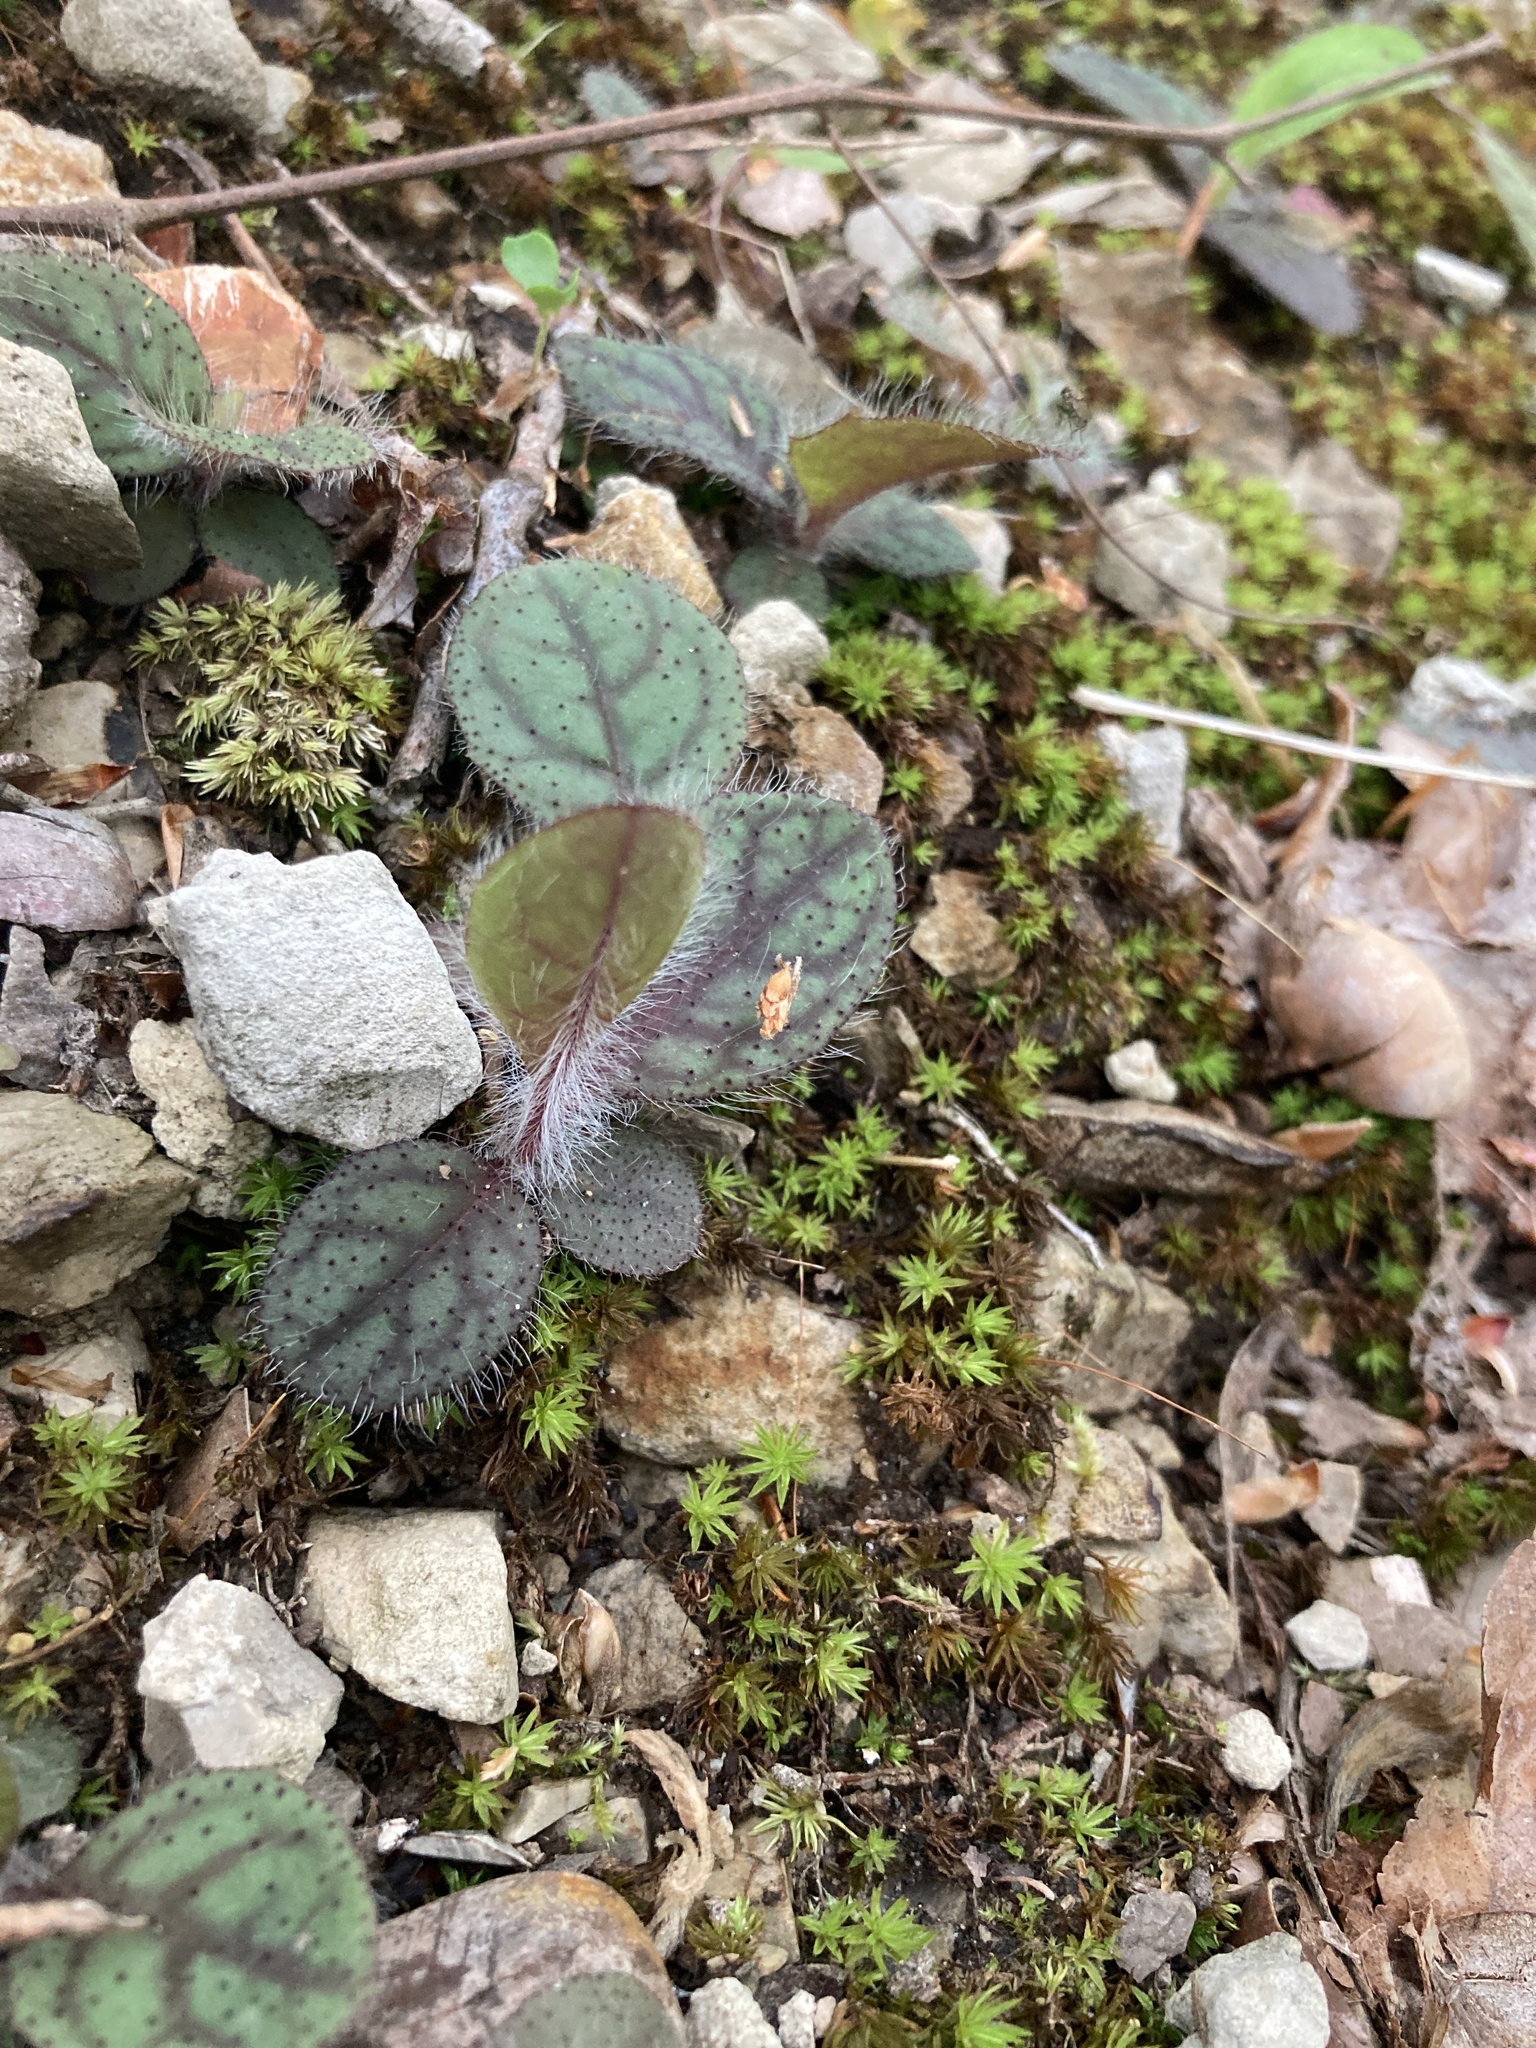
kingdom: Plantae
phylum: Tracheophyta
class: Magnoliopsida
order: Asterales
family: Asteraceae
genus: Hieracium
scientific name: Hieracium venosum
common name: Rattlesnake hawkweed
